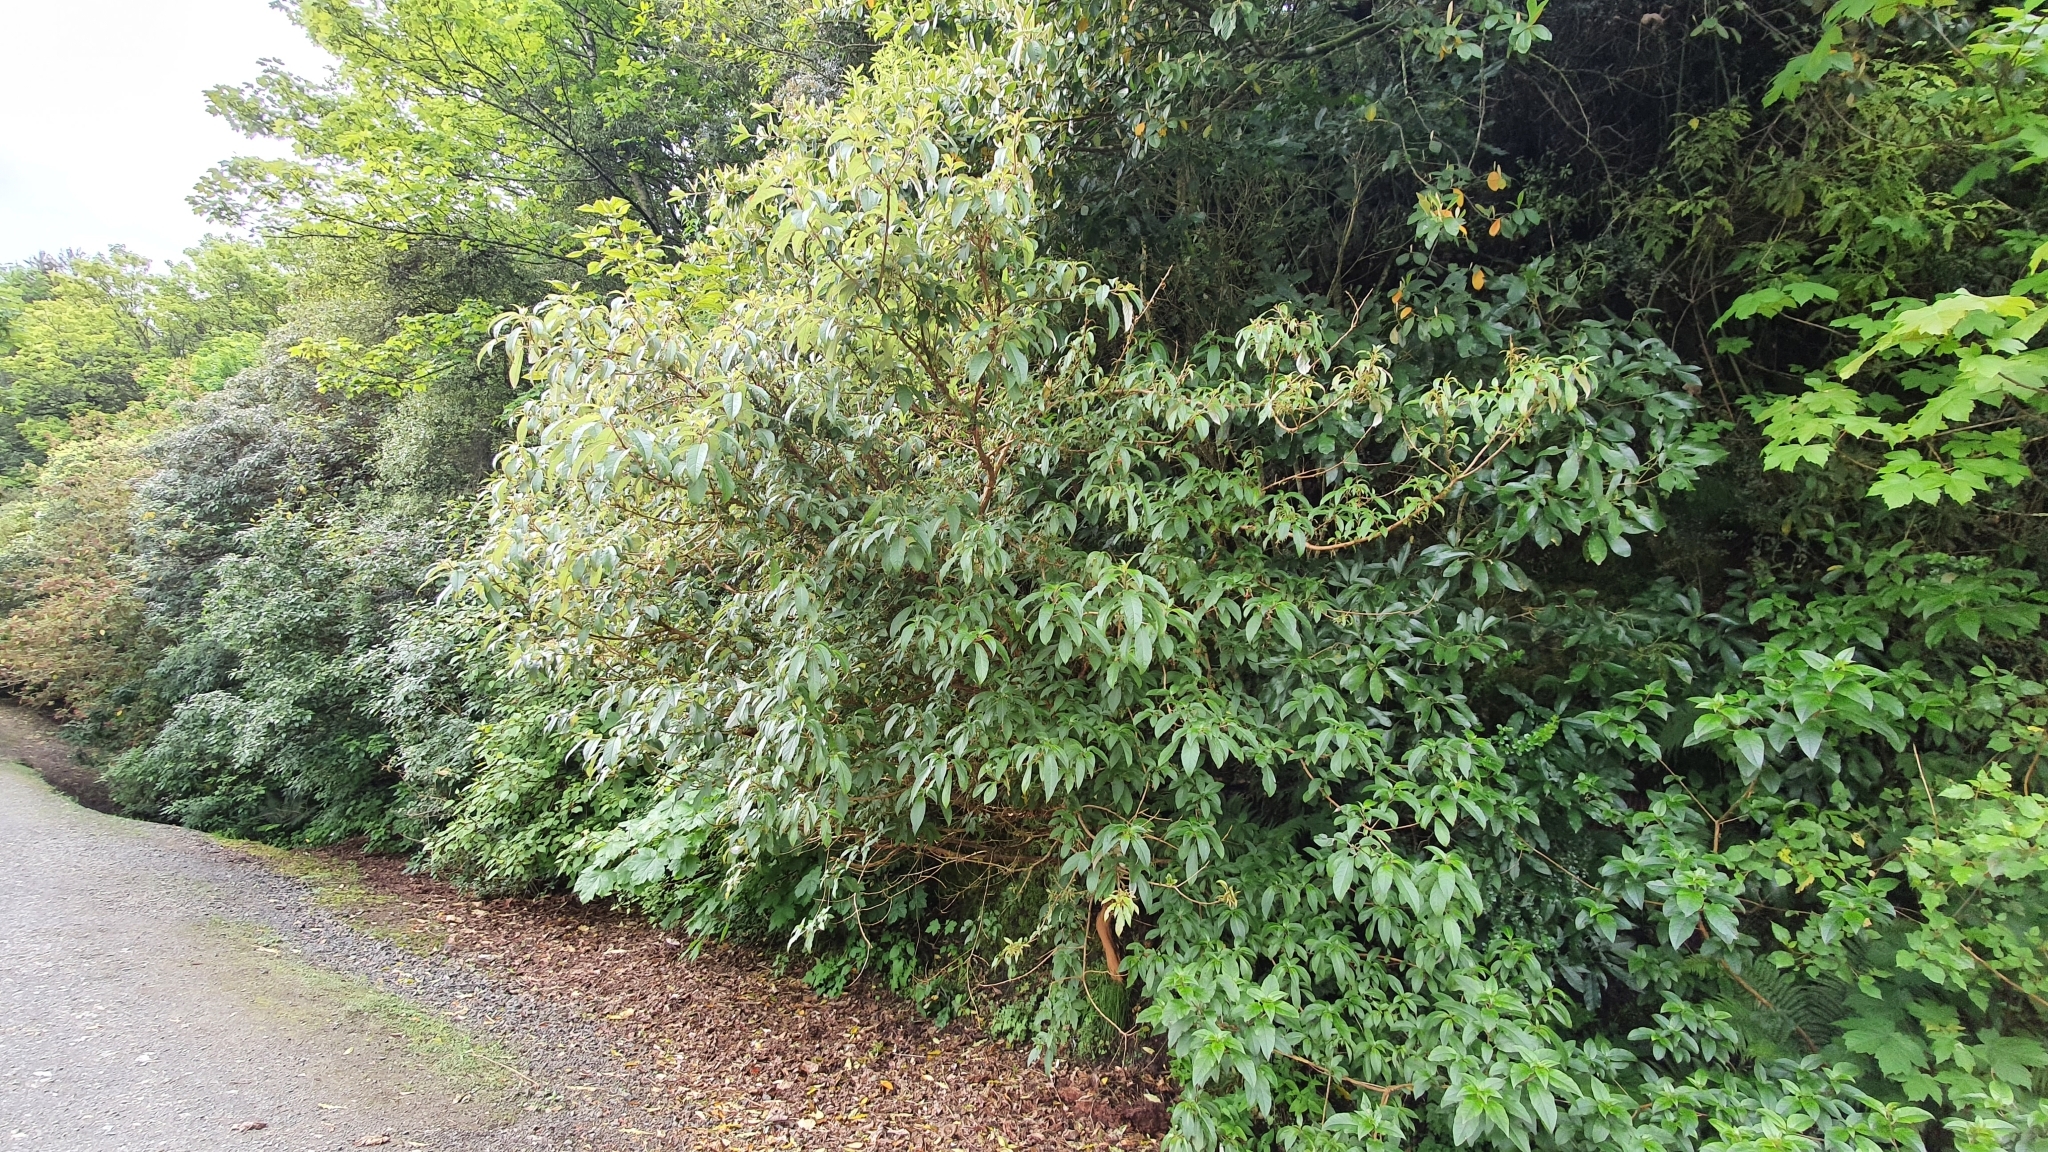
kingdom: Plantae
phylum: Tracheophyta
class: Magnoliopsida
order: Myrtales
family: Onagraceae
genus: Fuchsia
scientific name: Fuchsia excorticata
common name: Tree fuchsia
